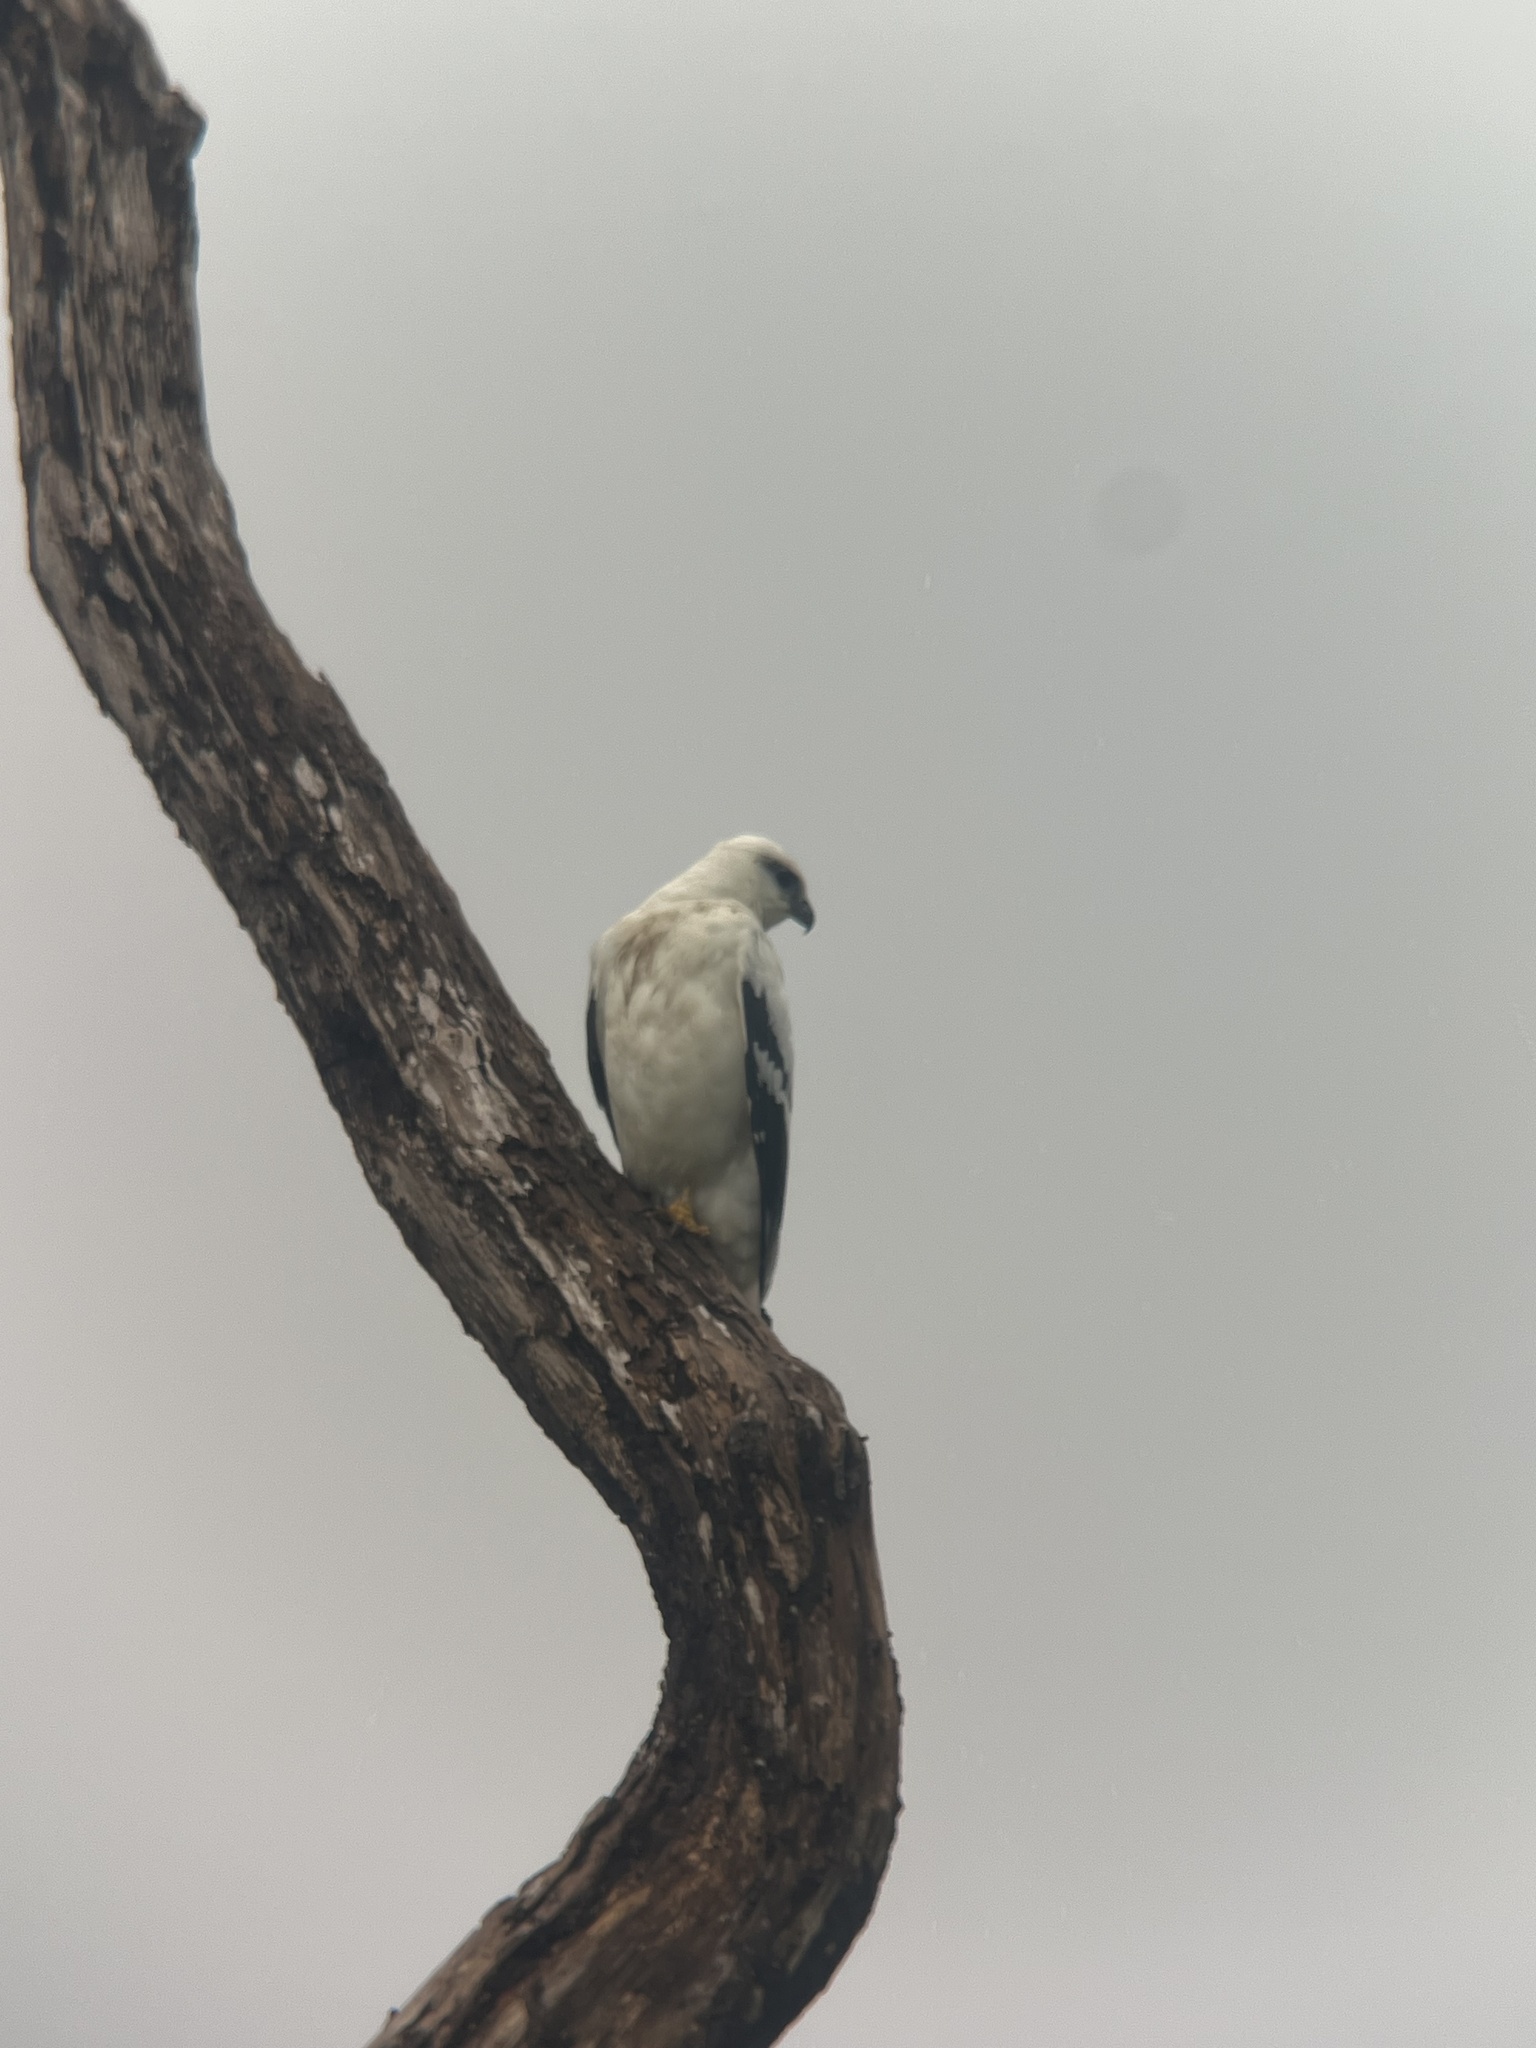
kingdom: Animalia
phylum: Chordata
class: Aves
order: Accipitriformes
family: Accipitridae
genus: Leucopternis
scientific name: Leucopternis albicollis
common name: White hawk
